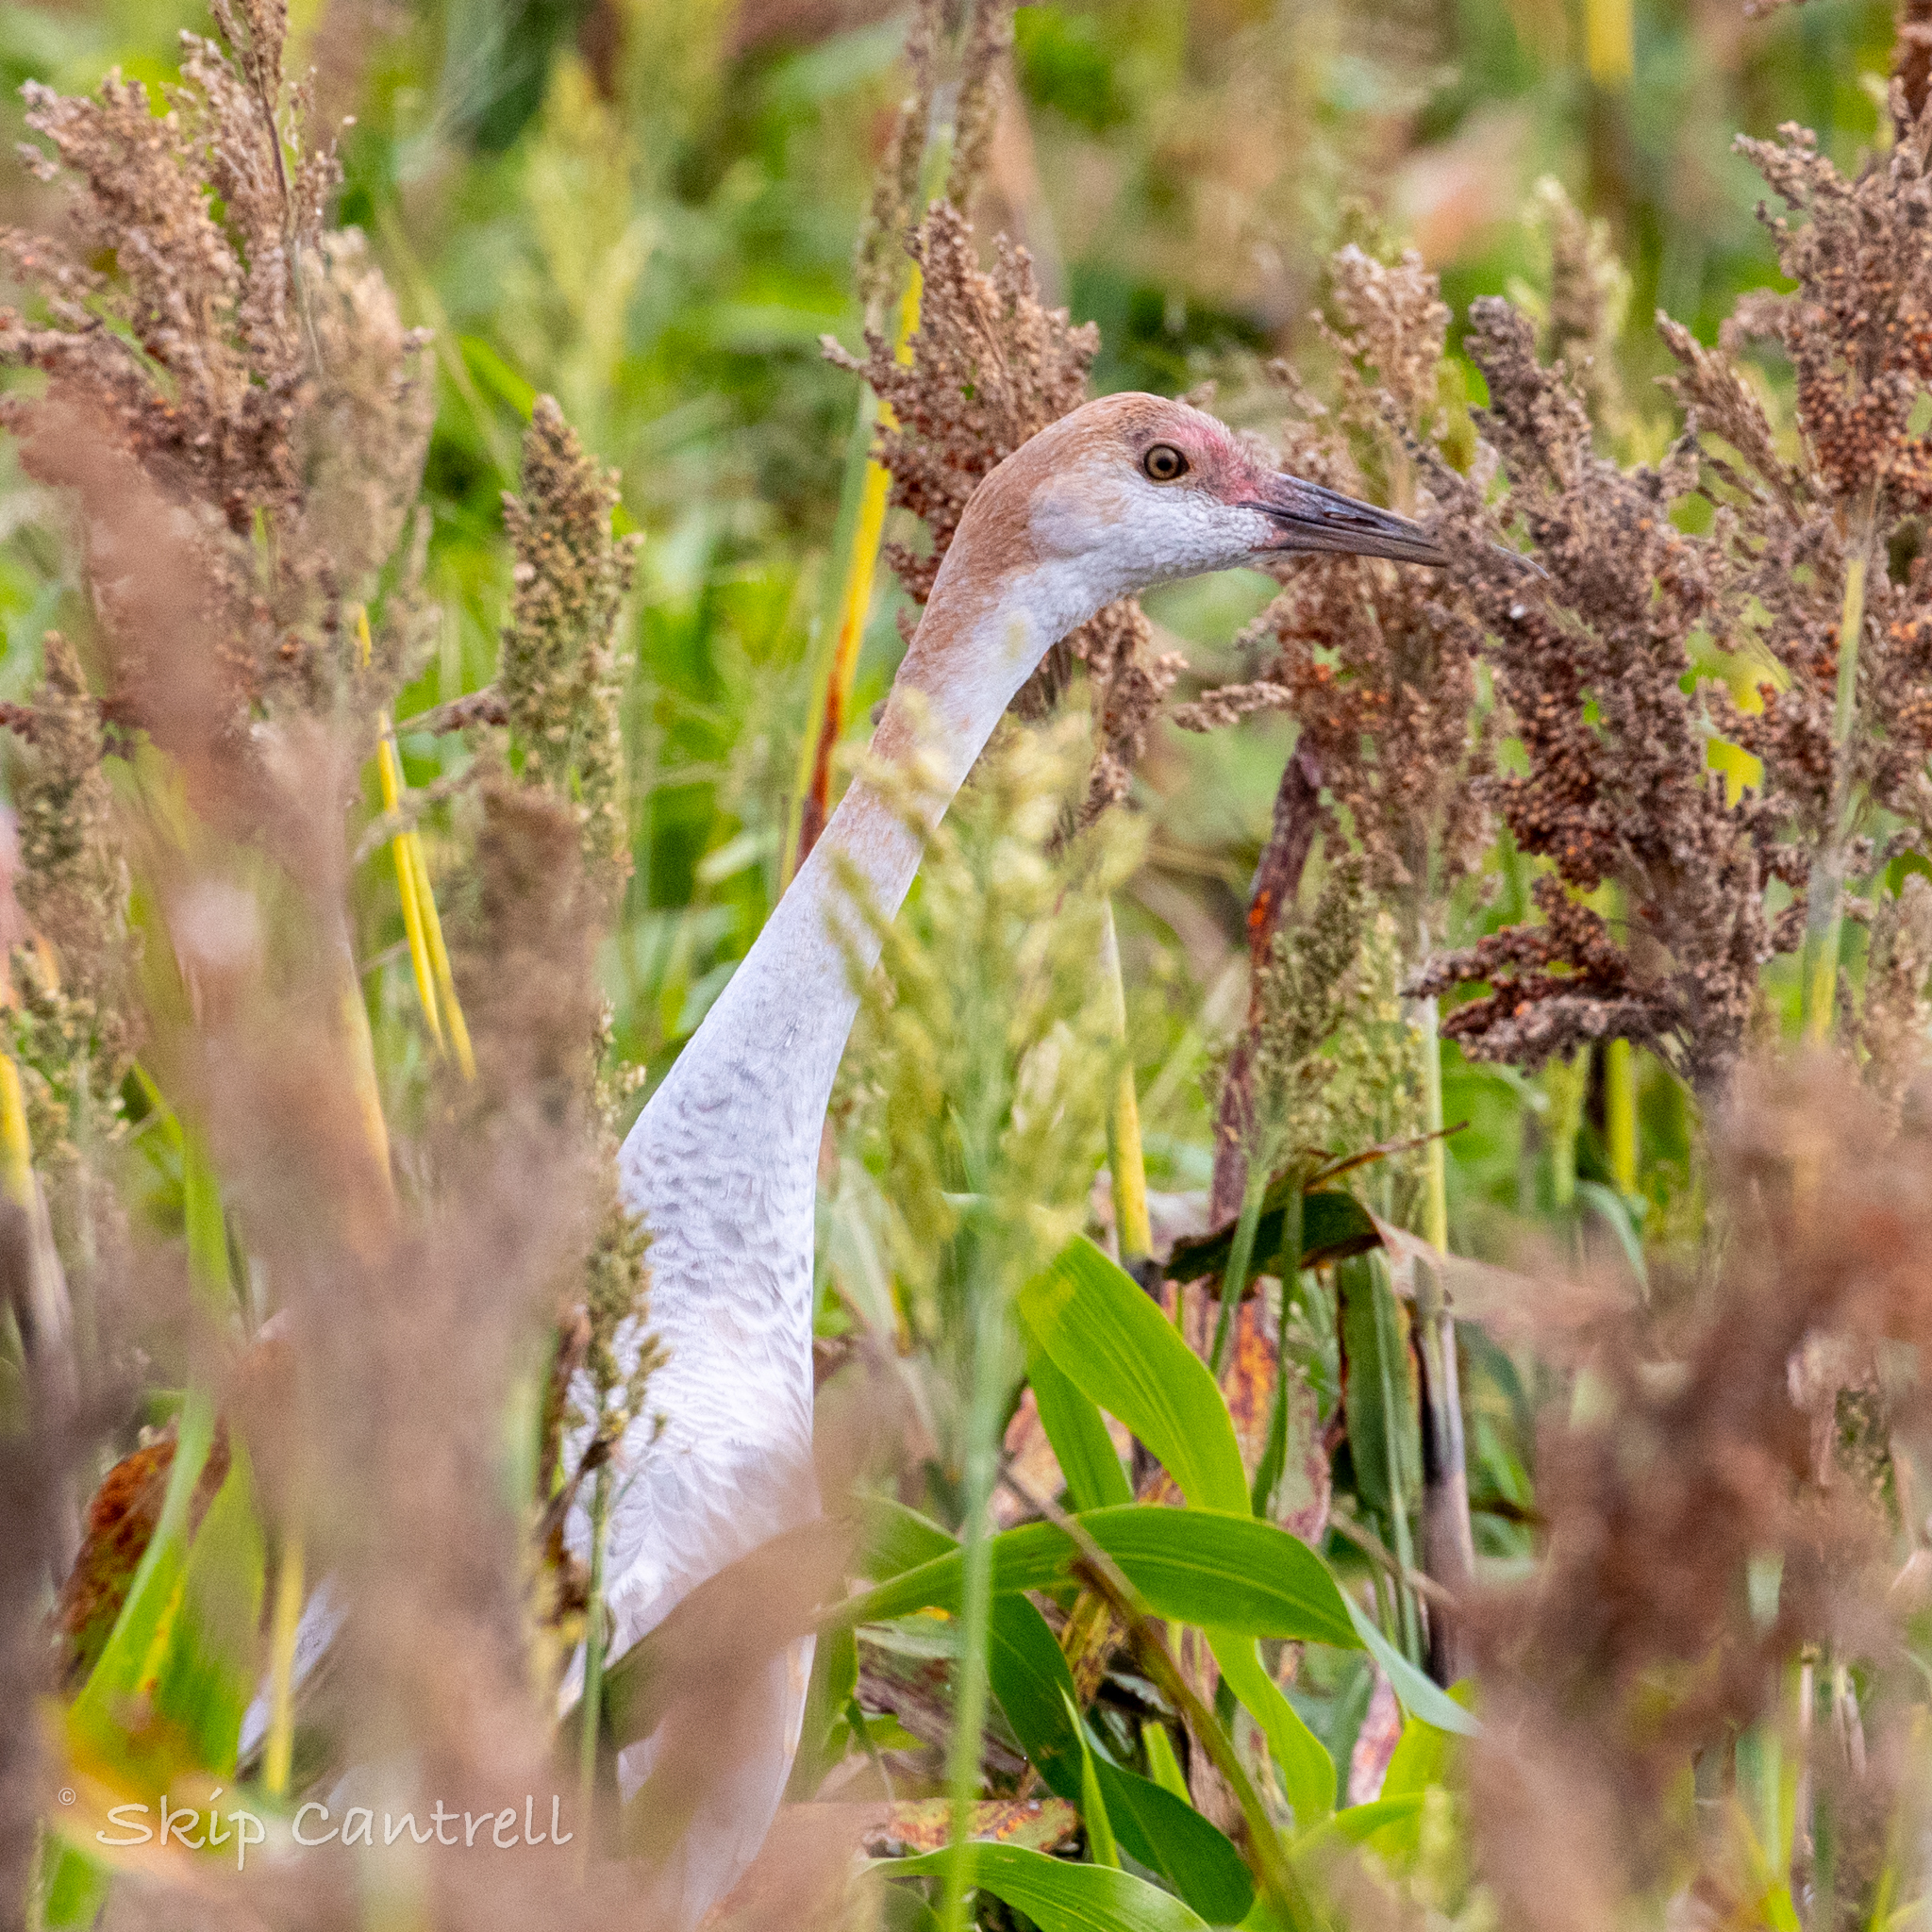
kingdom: Animalia
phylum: Chordata
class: Aves
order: Gruiformes
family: Gruidae
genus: Grus
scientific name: Grus canadensis
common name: Sandhill crane
